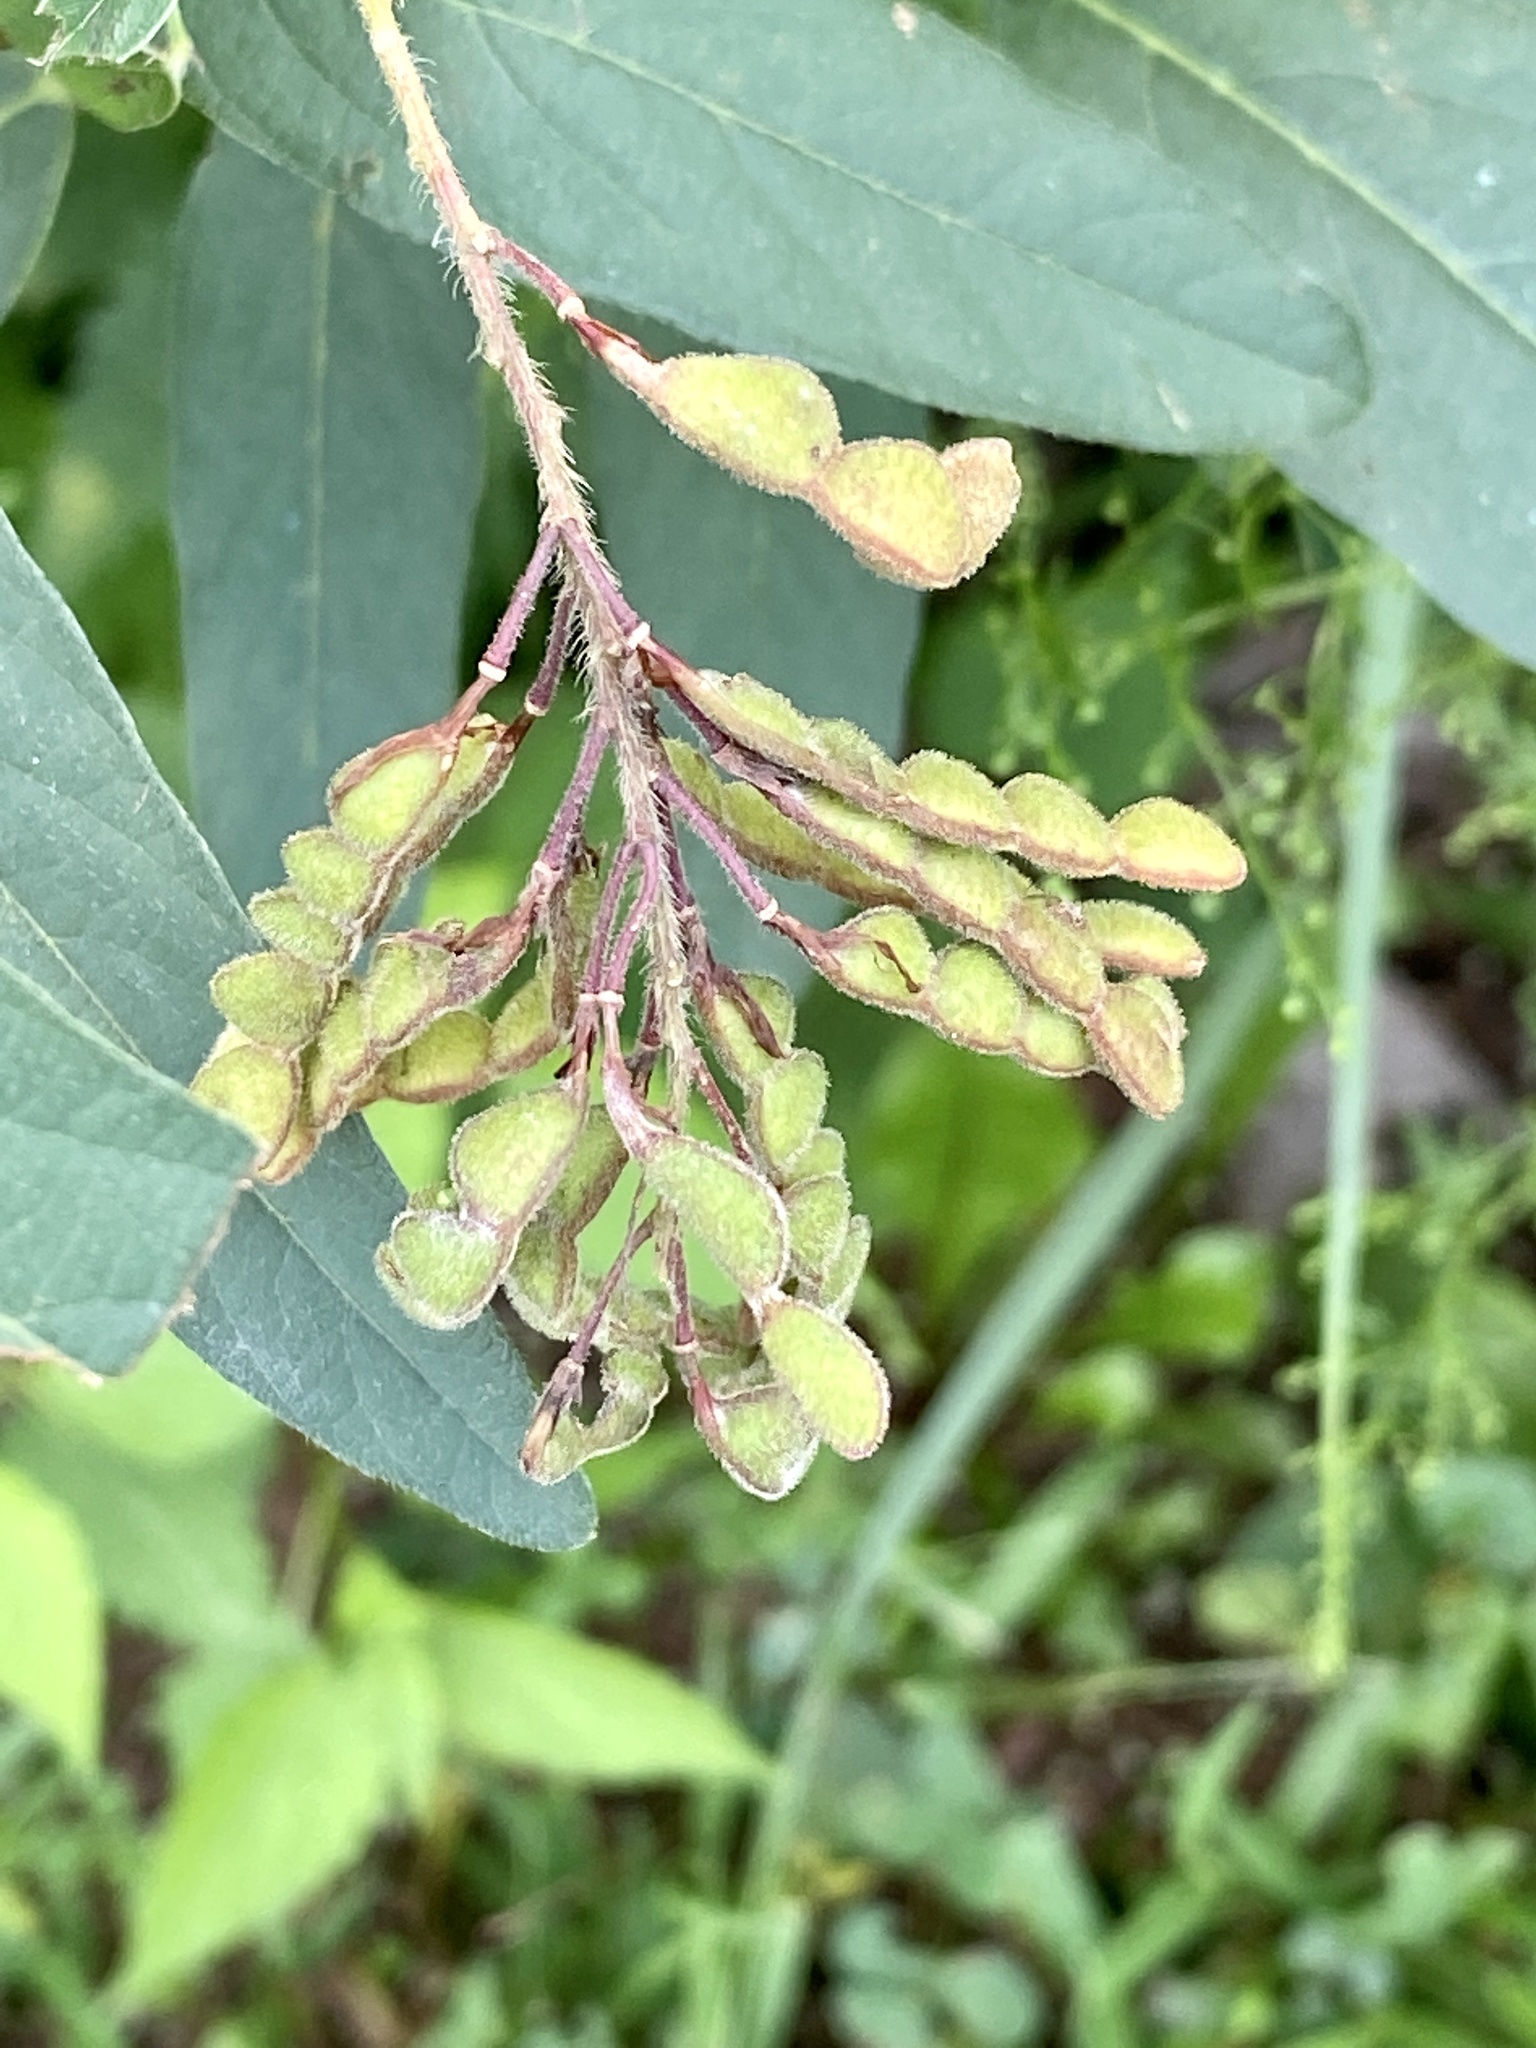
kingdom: Plantae
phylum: Tracheophyta
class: Magnoliopsida
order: Fabales
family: Fabaceae
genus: Desmodium
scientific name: Desmodium canadense
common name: Canada tick-trefoil
